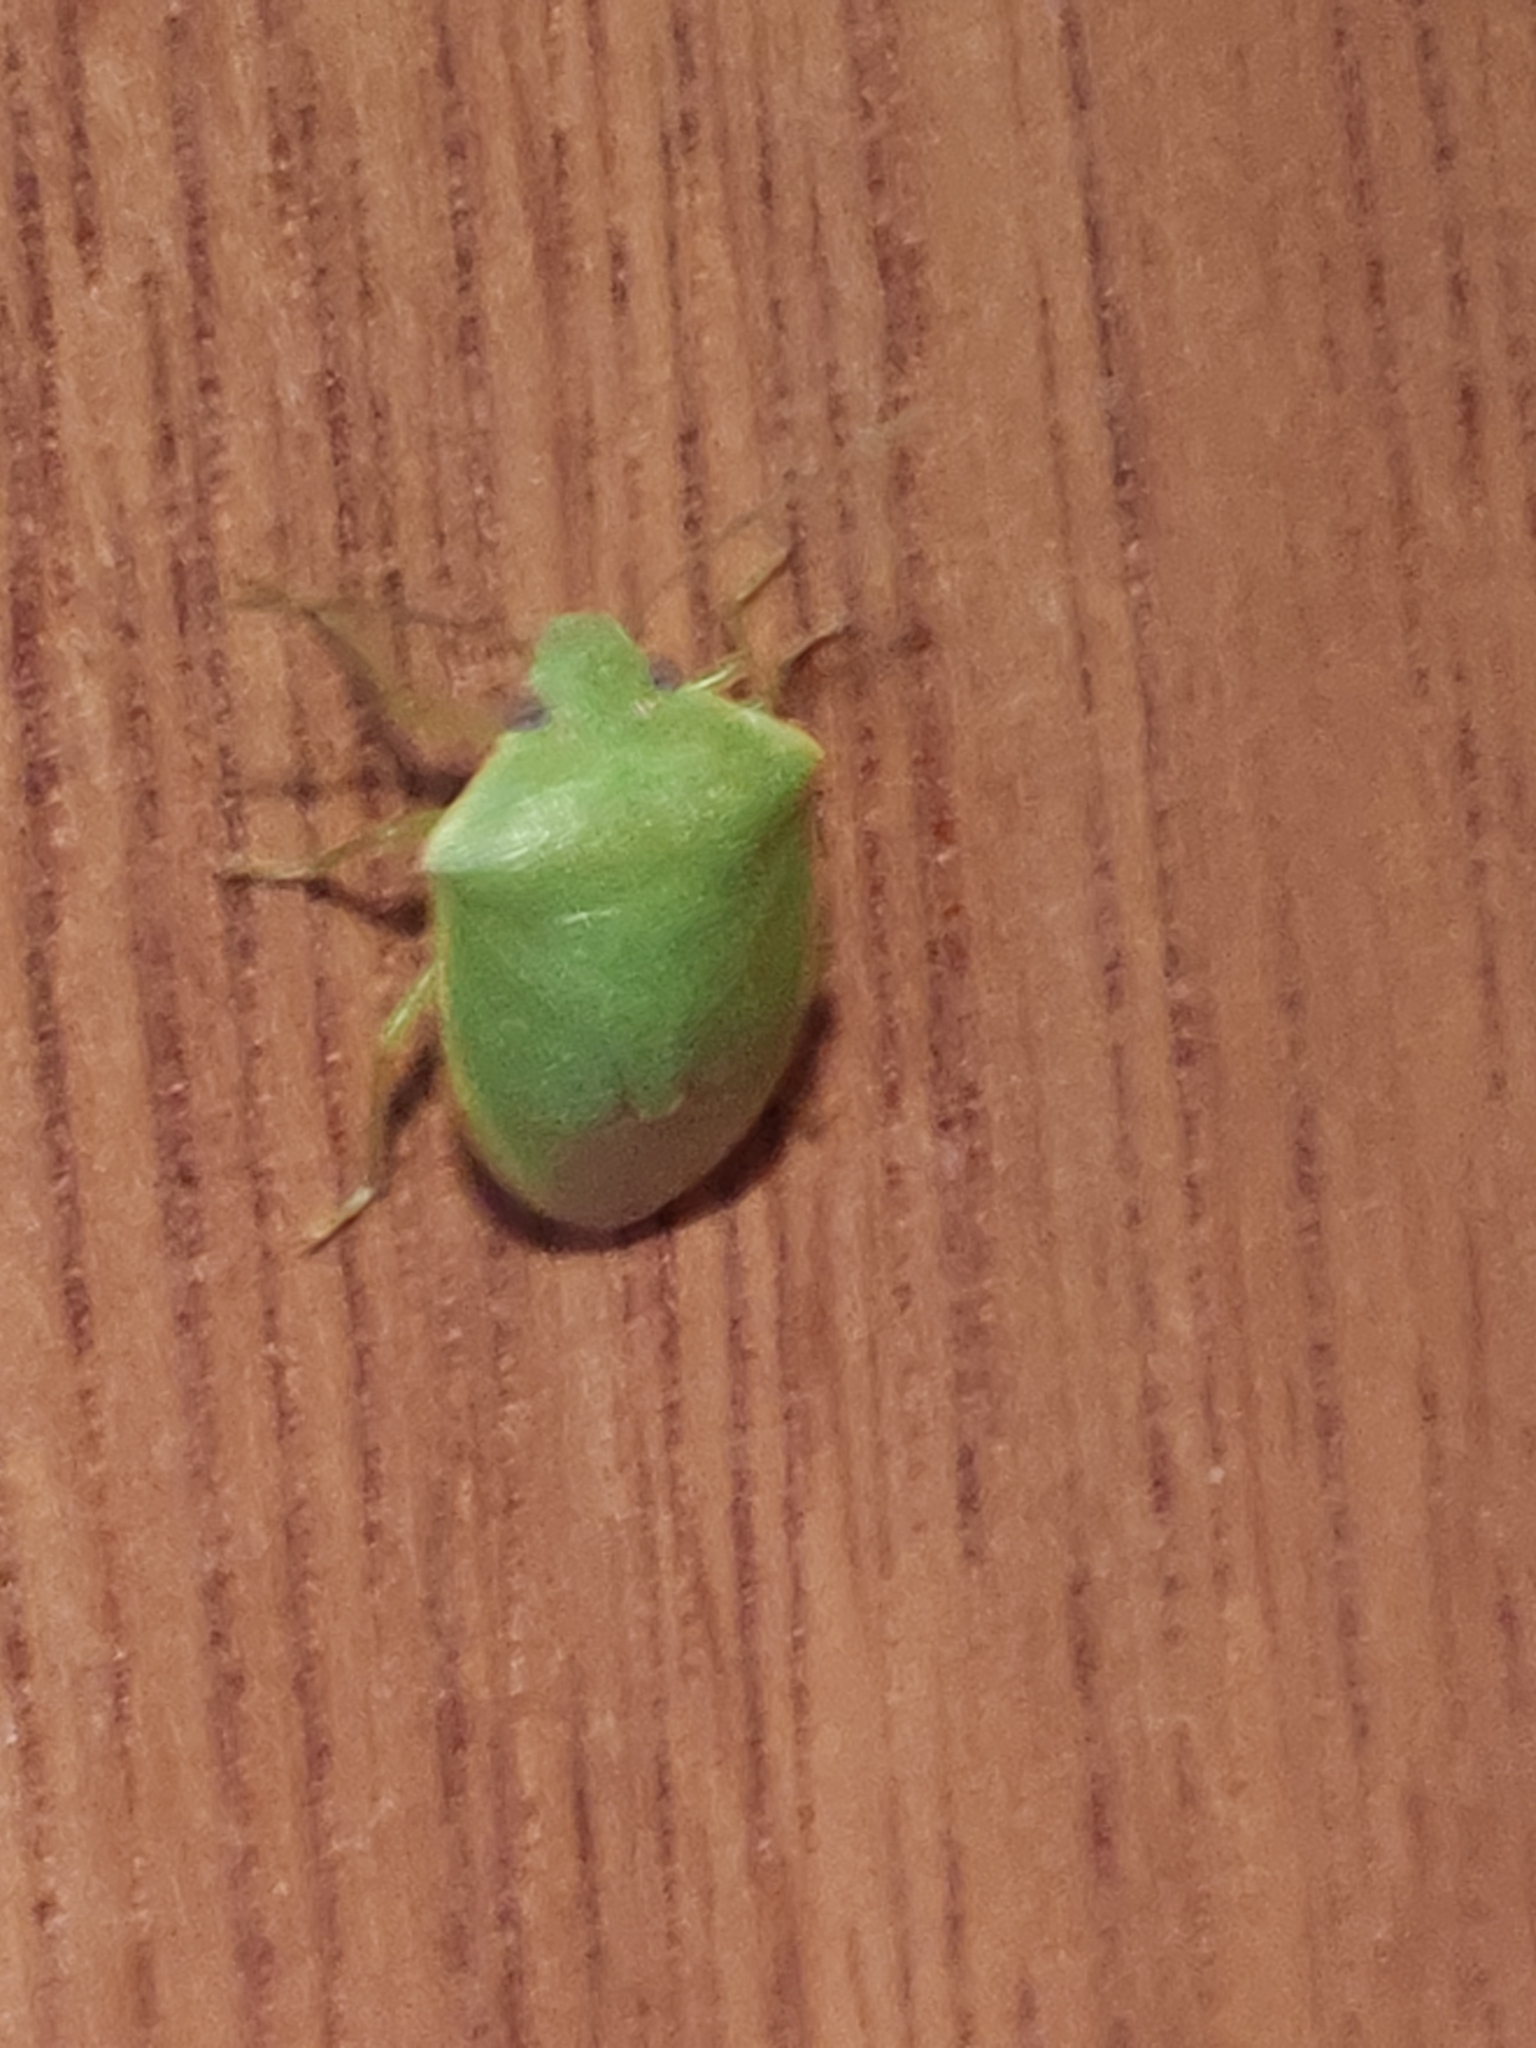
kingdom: Animalia
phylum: Arthropoda
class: Insecta
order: Hemiptera
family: Pentatomidae
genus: Acrosternum
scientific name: Acrosternum millierei
